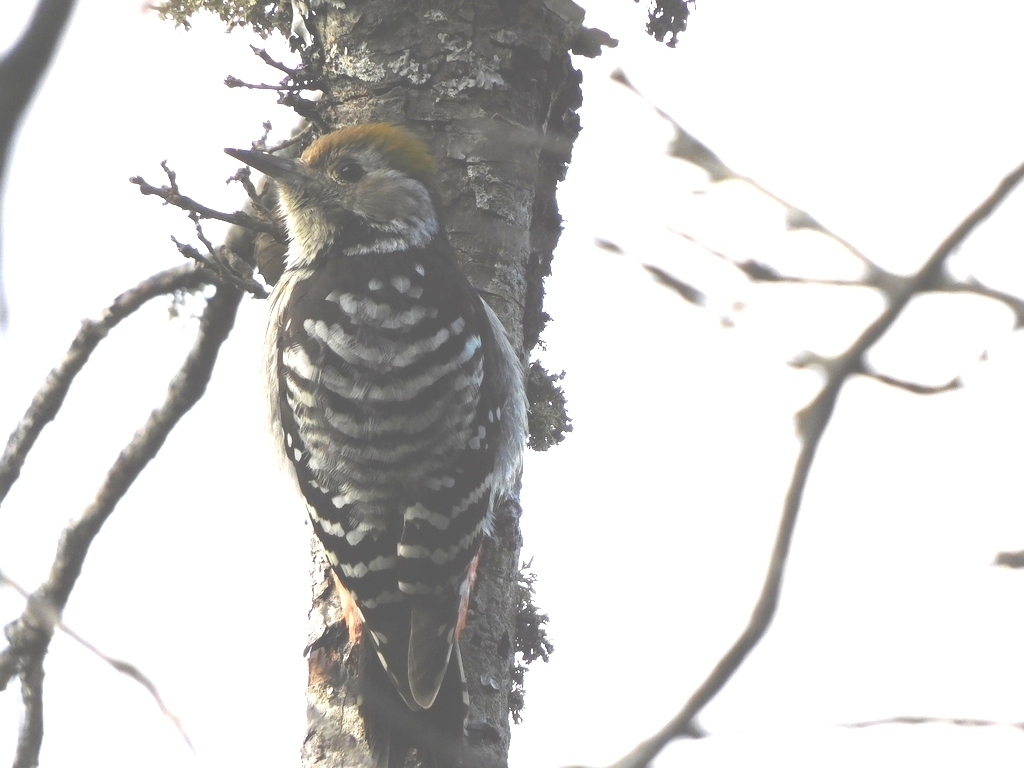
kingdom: Animalia
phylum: Chordata
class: Aves
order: Piciformes
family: Picidae
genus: Dendrocoptes
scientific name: Dendrocoptes auriceps
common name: Brown-fronted woodpecker
